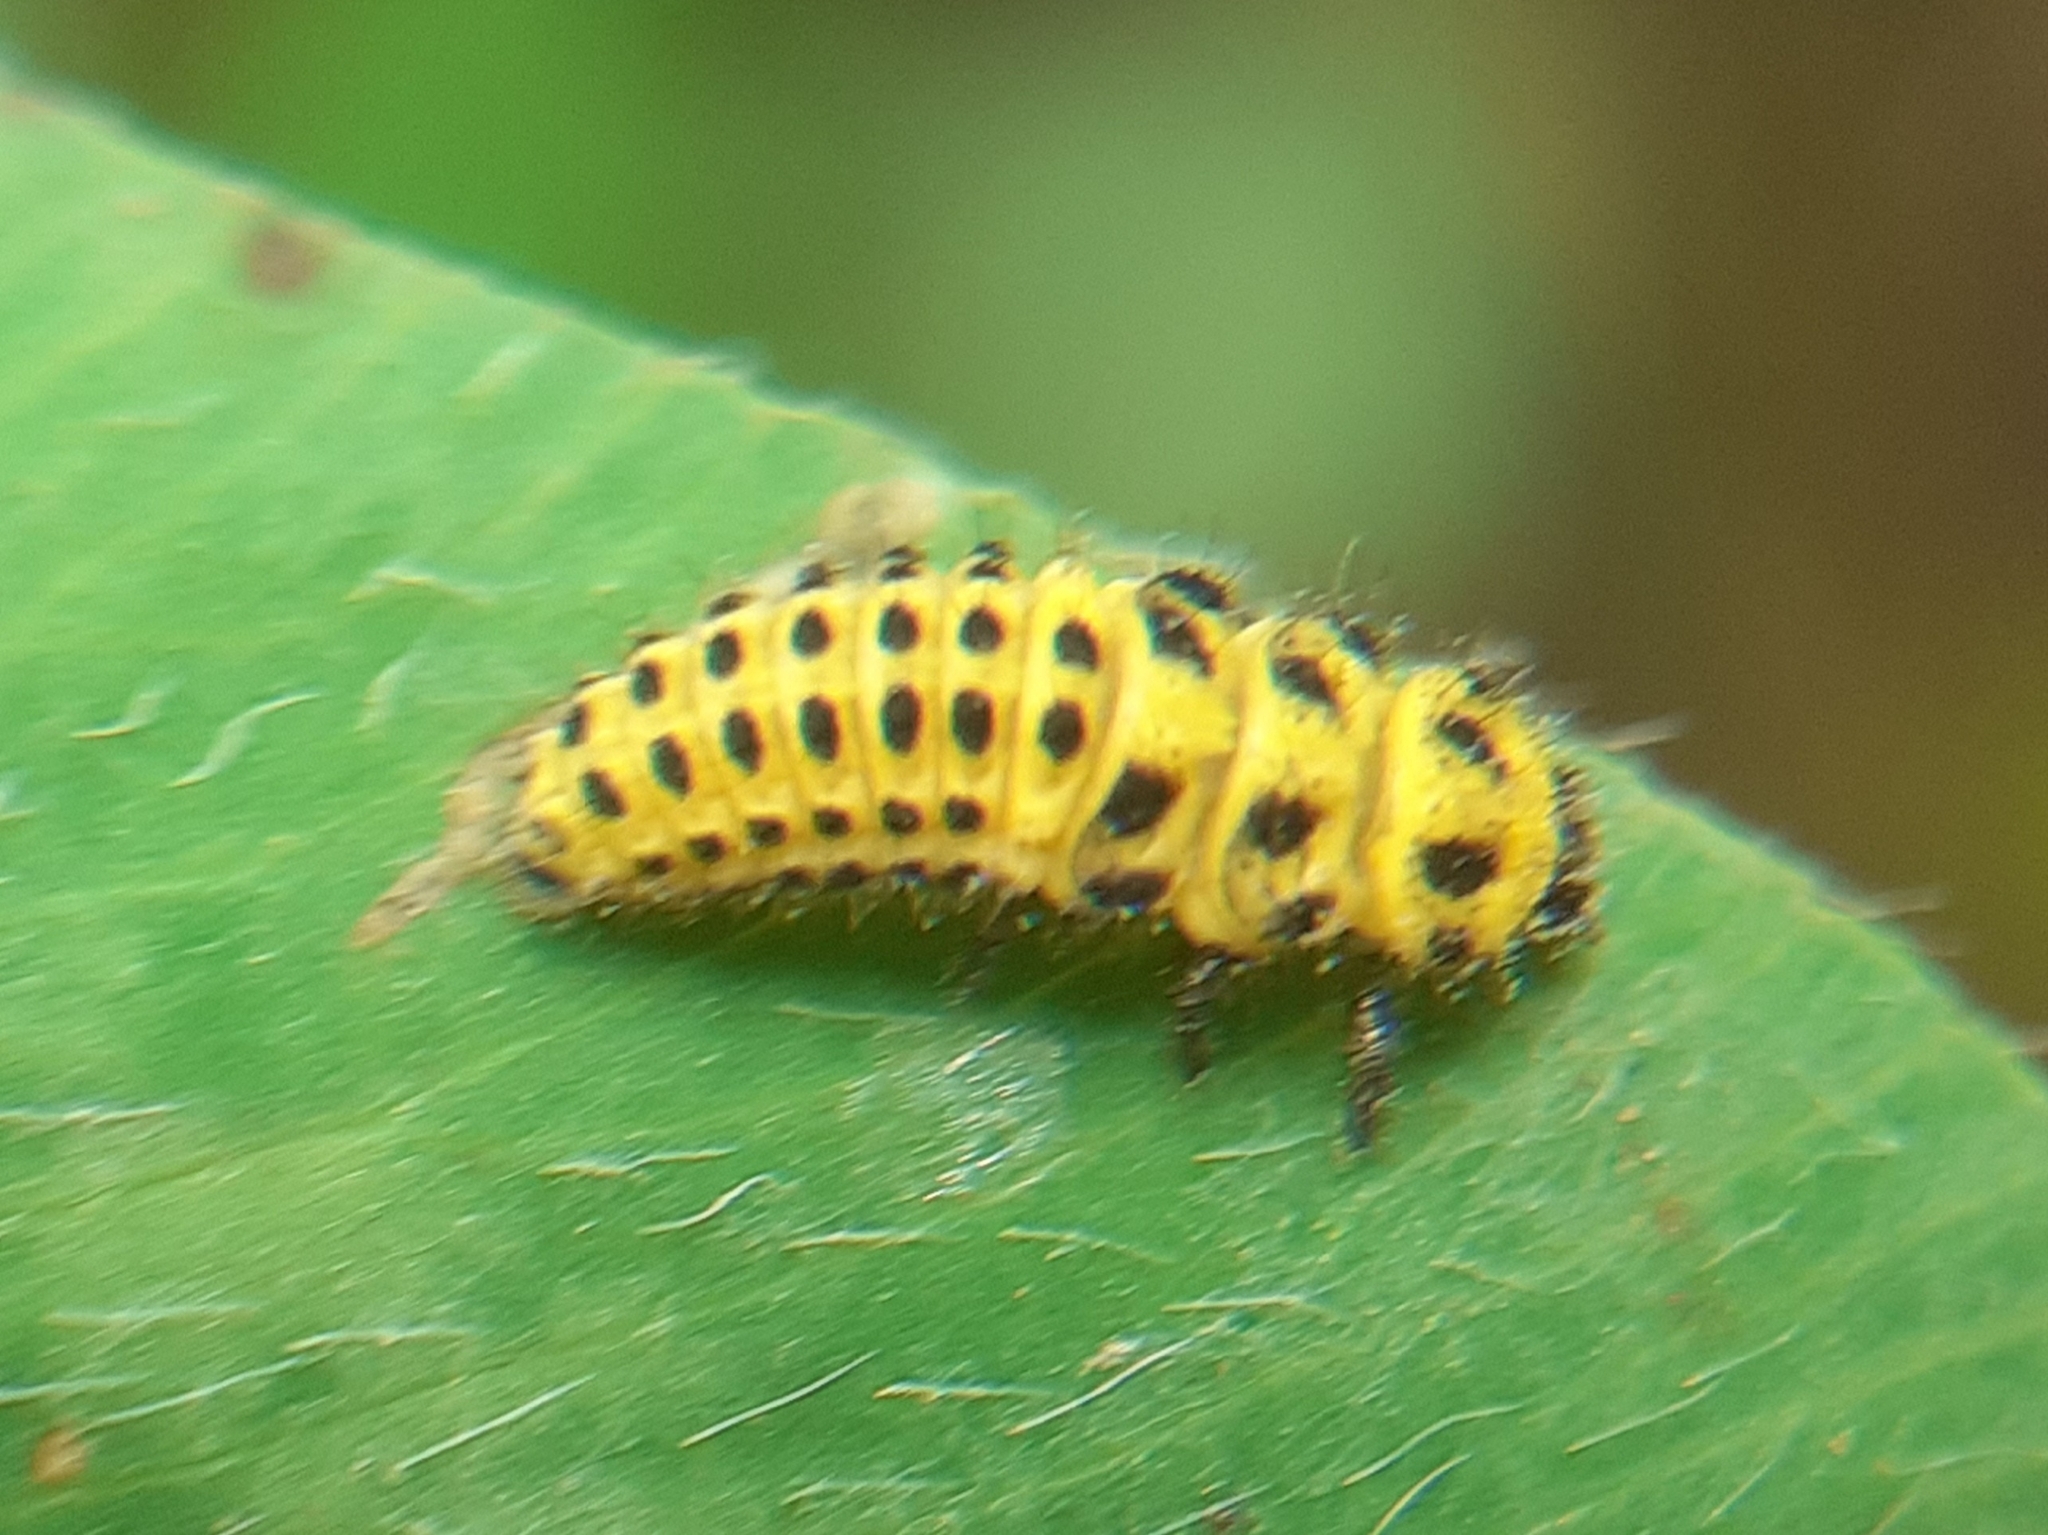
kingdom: Animalia
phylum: Arthropoda
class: Insecta
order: Coleoptera
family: Coccinellidae
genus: Psyllobora
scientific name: Psyllobora vigintiduopunctata
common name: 22-spot ladybird
